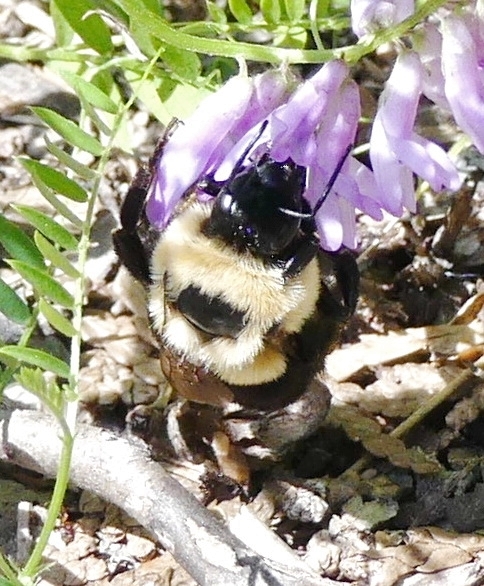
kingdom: Animalia
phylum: Arthropoda
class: Insecta
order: Hymenoptera
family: Apidae
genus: Bombus
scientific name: Bombus impatiens
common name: Common eastern bumble bee
